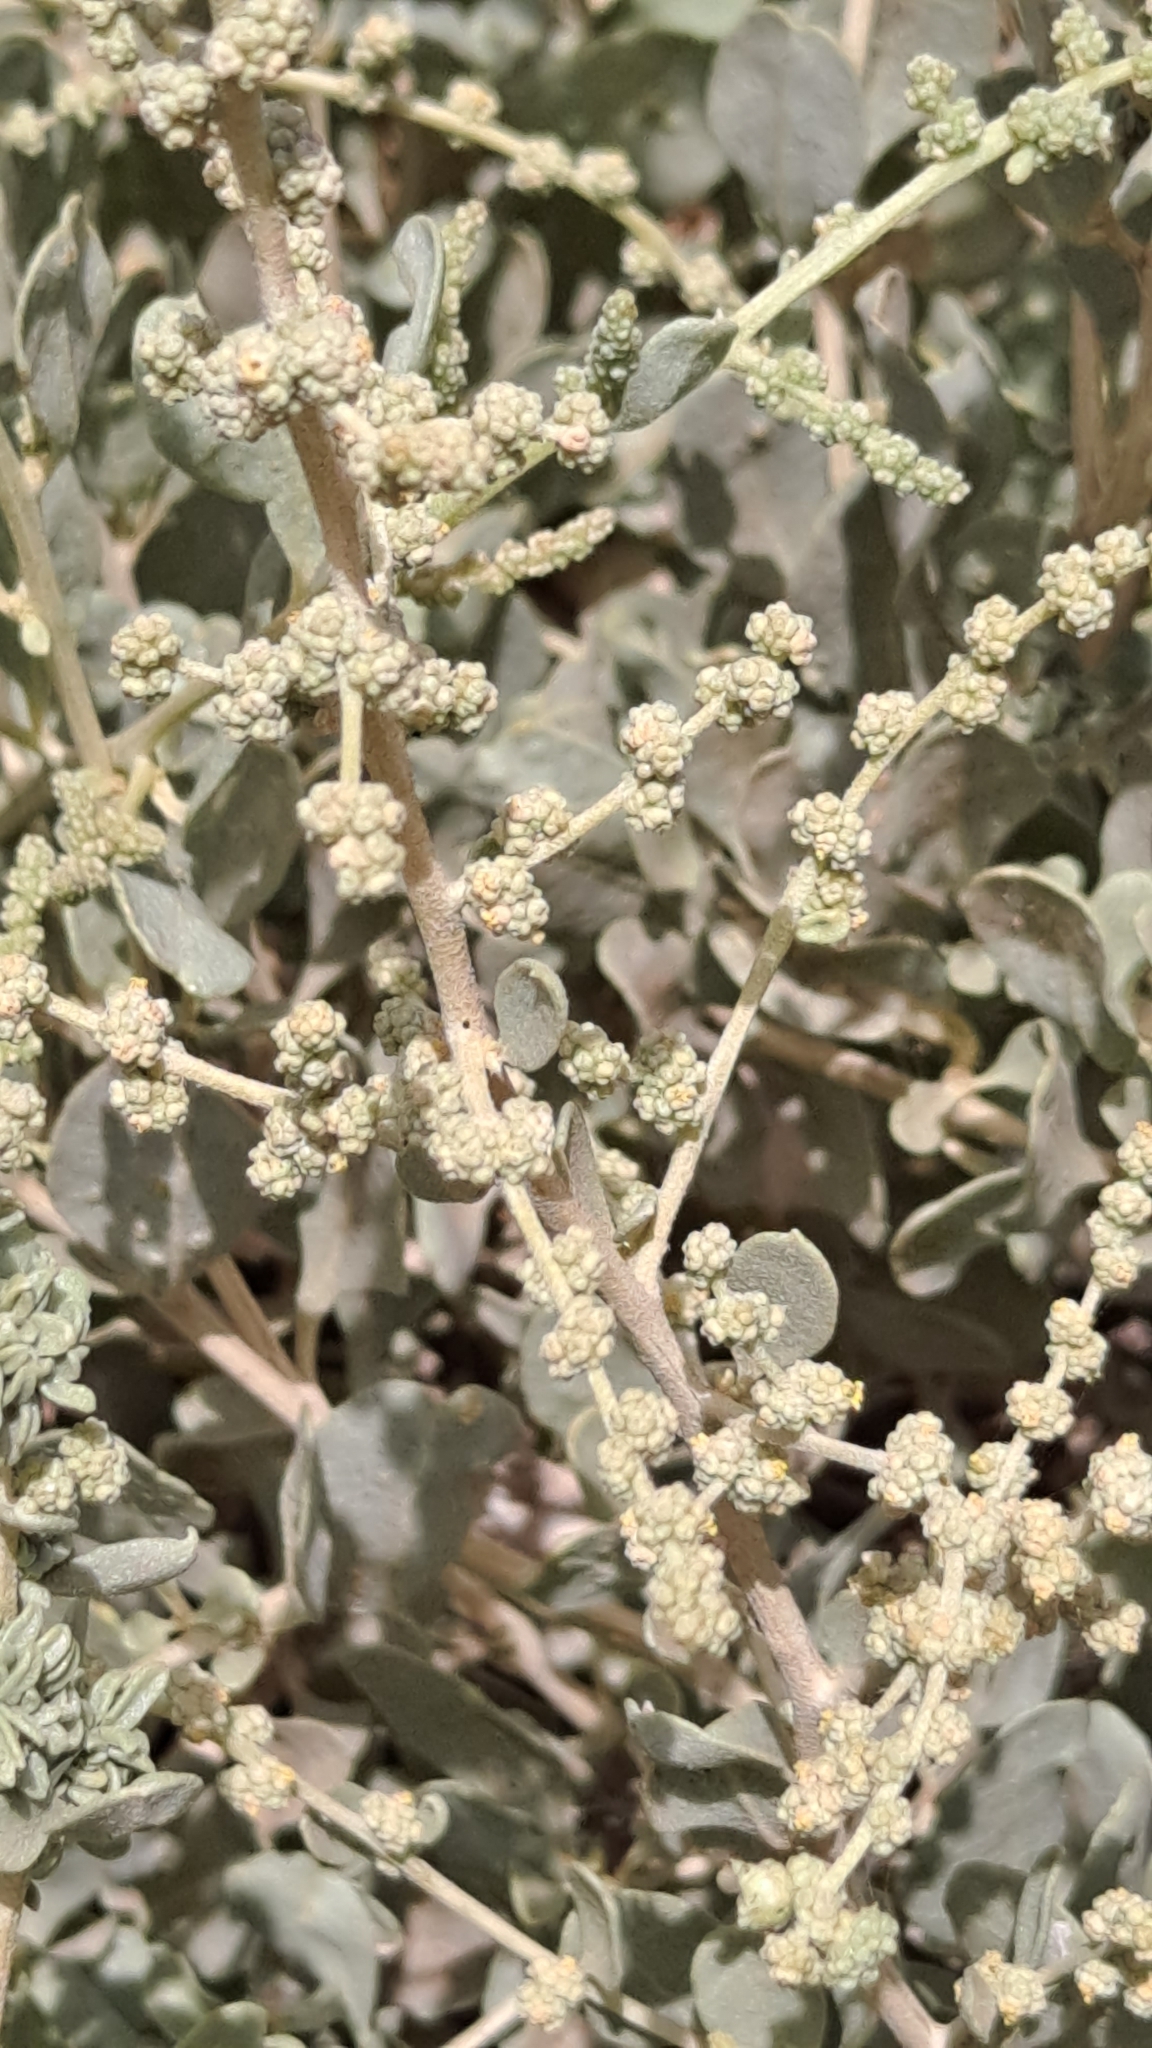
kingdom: Plantae
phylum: Tracheophyta
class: Magnoliopsida
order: Caryophyllales
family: Amaranthaceae
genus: Atriplex
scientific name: Atriplex halimus
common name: Shrubby orache
